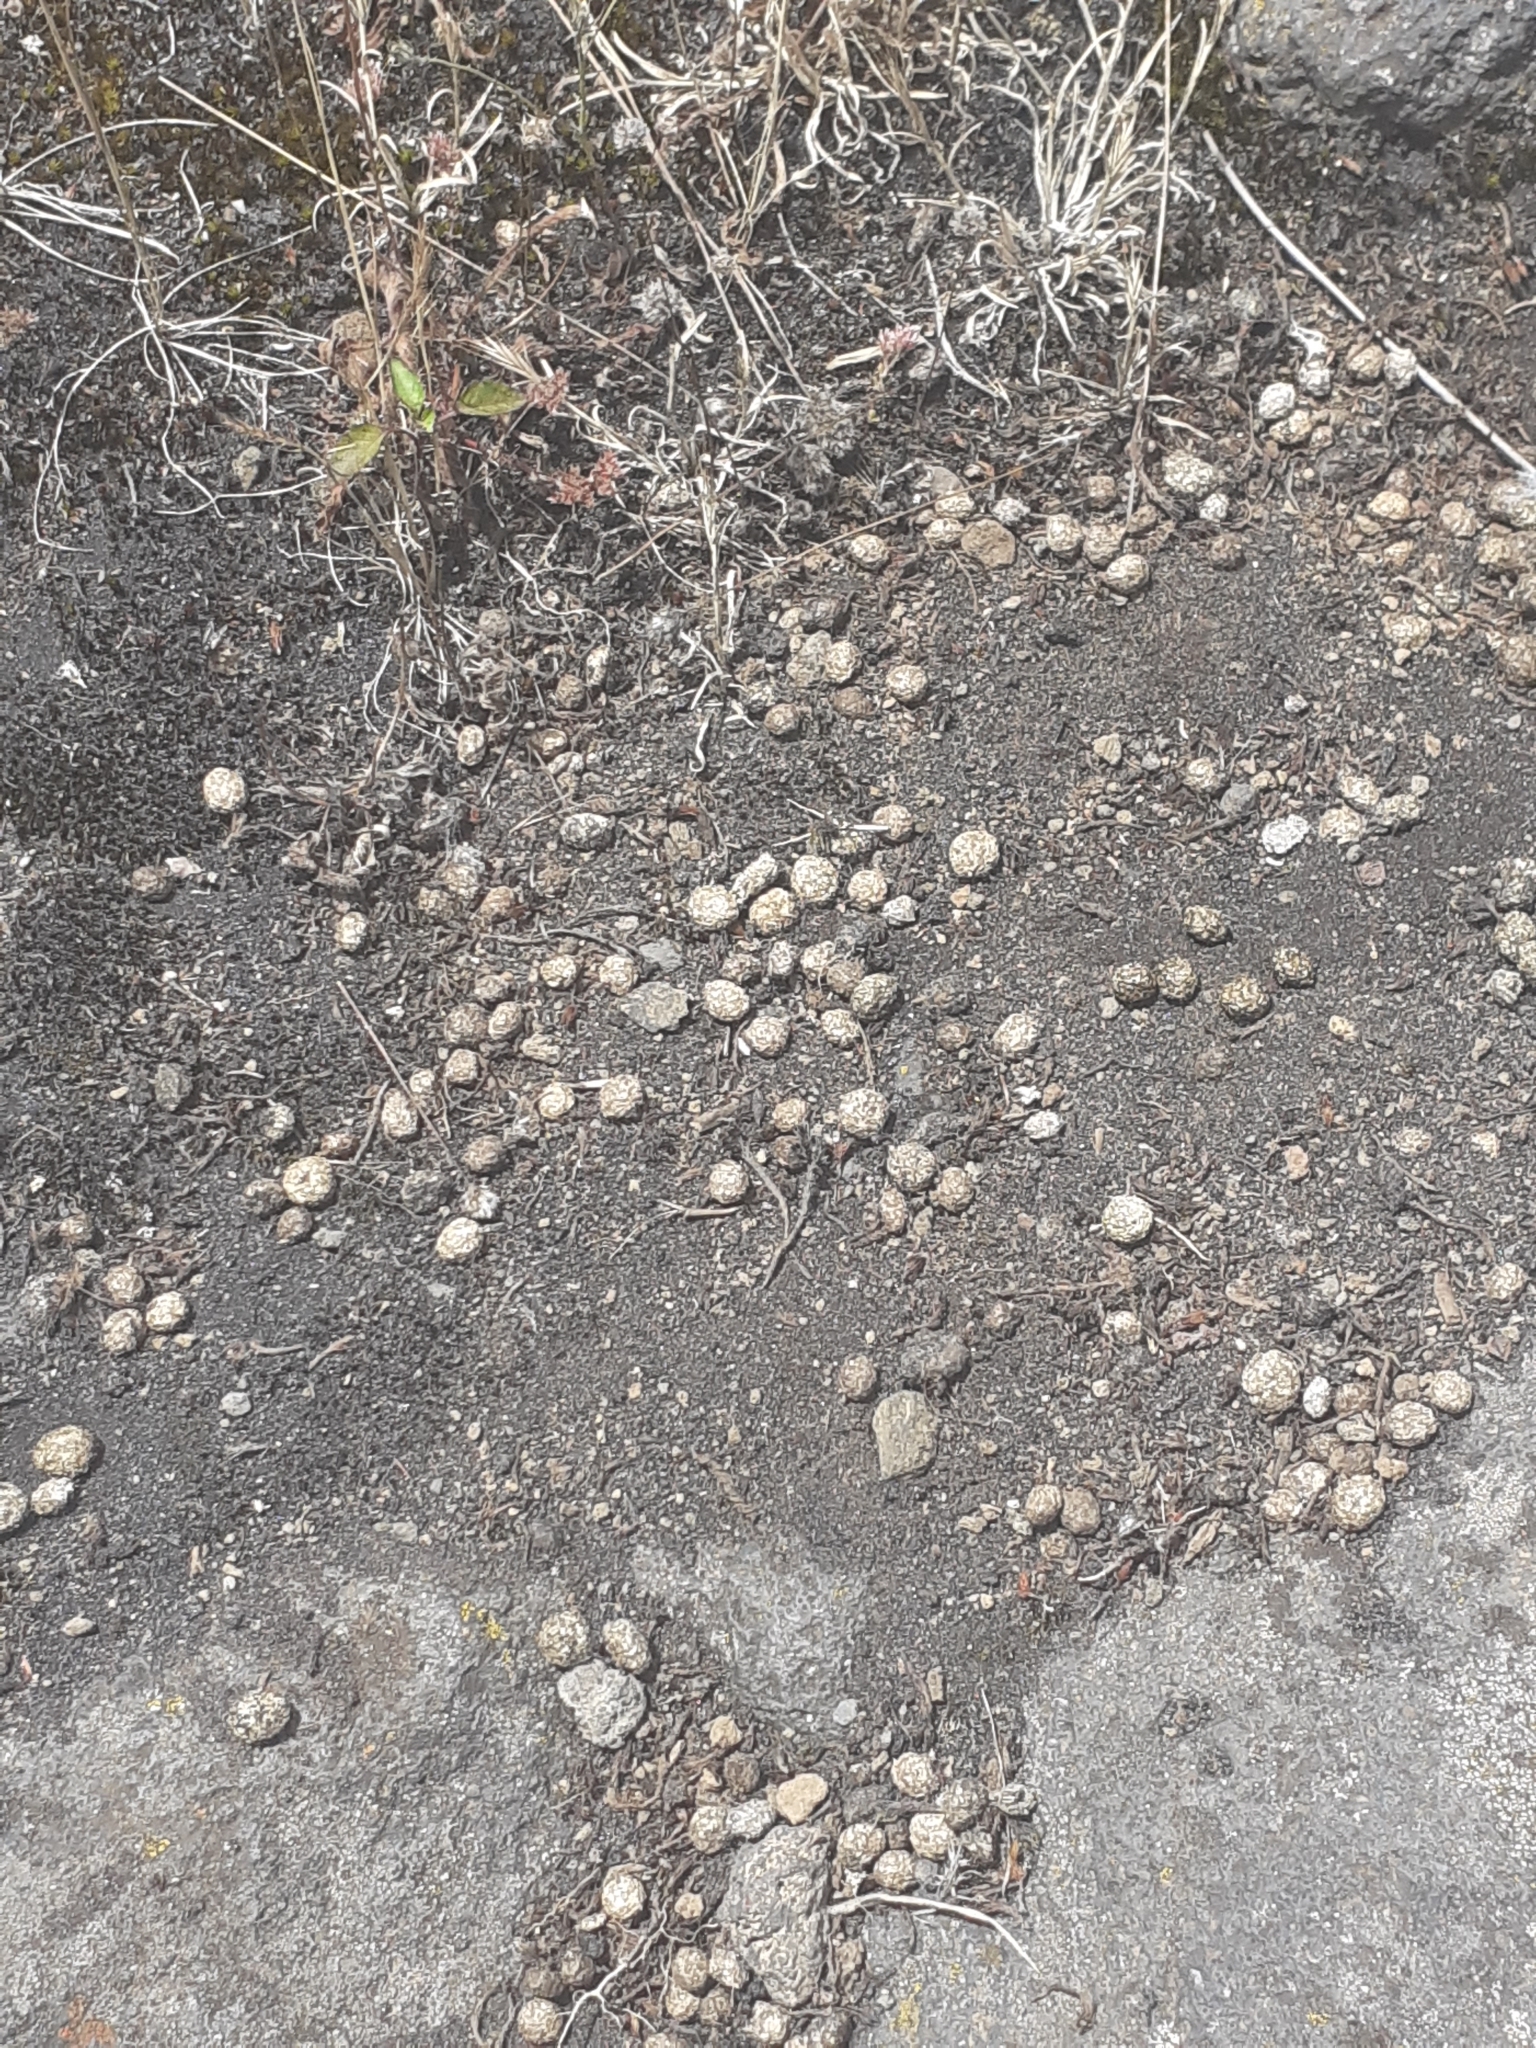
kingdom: Animalia
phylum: Chordata
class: Mammalia
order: Lagomorpha
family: Leporidae
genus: Oryctolagus
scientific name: Oryctolagus cuniculus
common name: European rabbit
